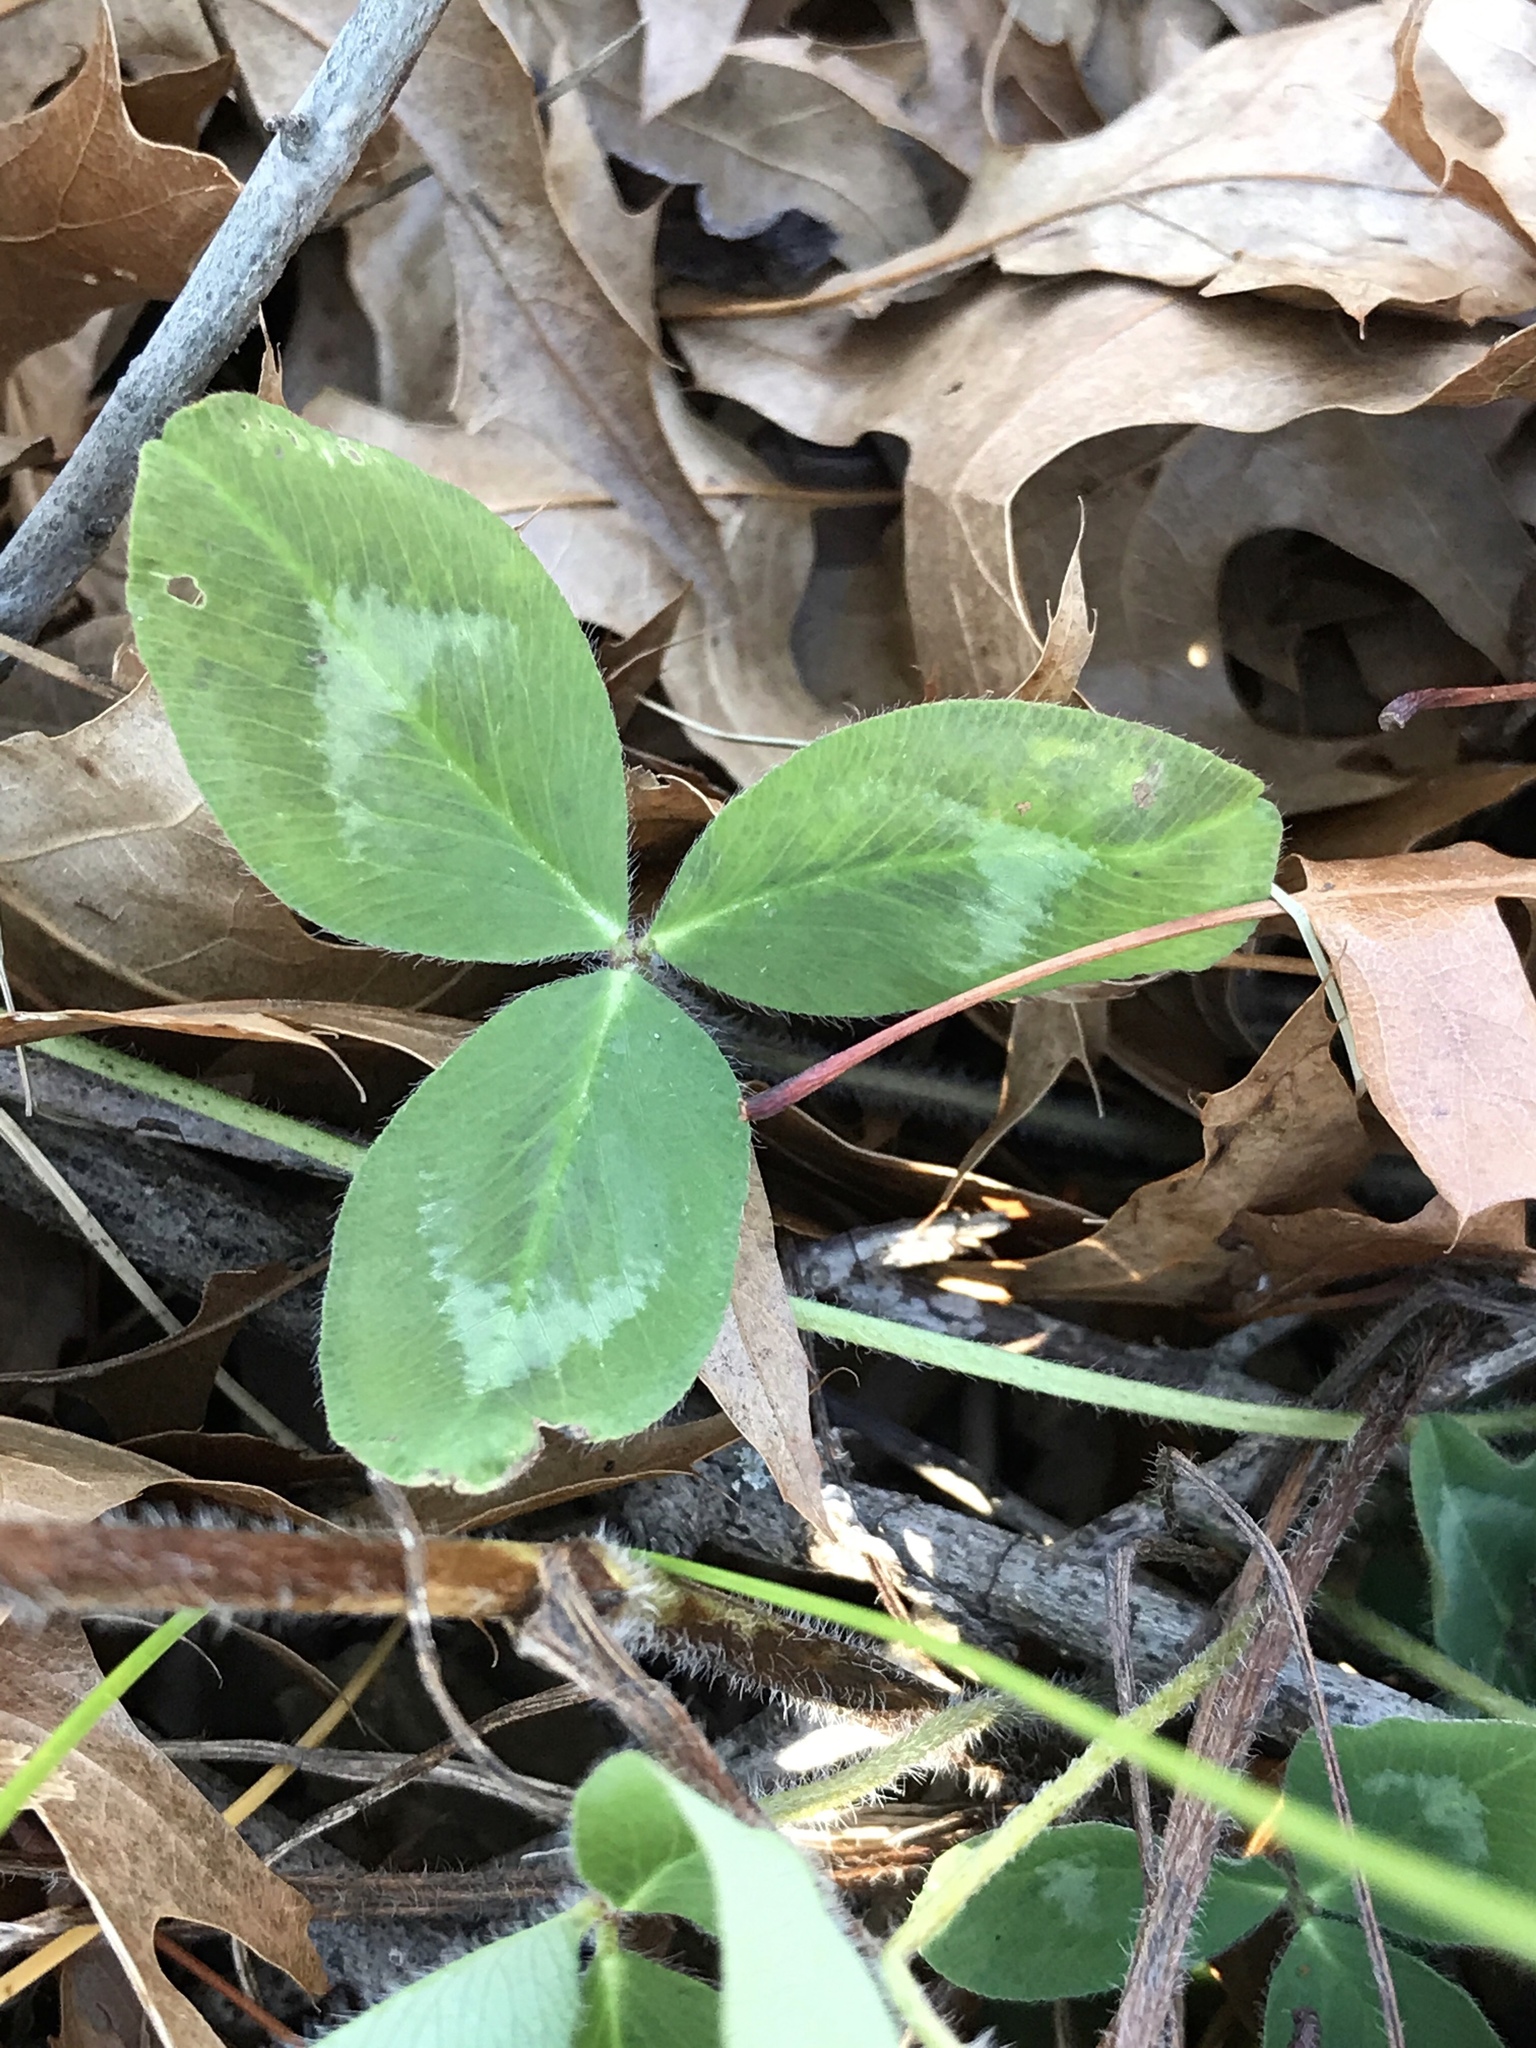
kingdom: Plantae
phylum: Tracheophyta
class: Magnoliopsida
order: Fabales
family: Fabaceae
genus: Trifolium
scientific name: Trifolium pratense
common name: Red clover
